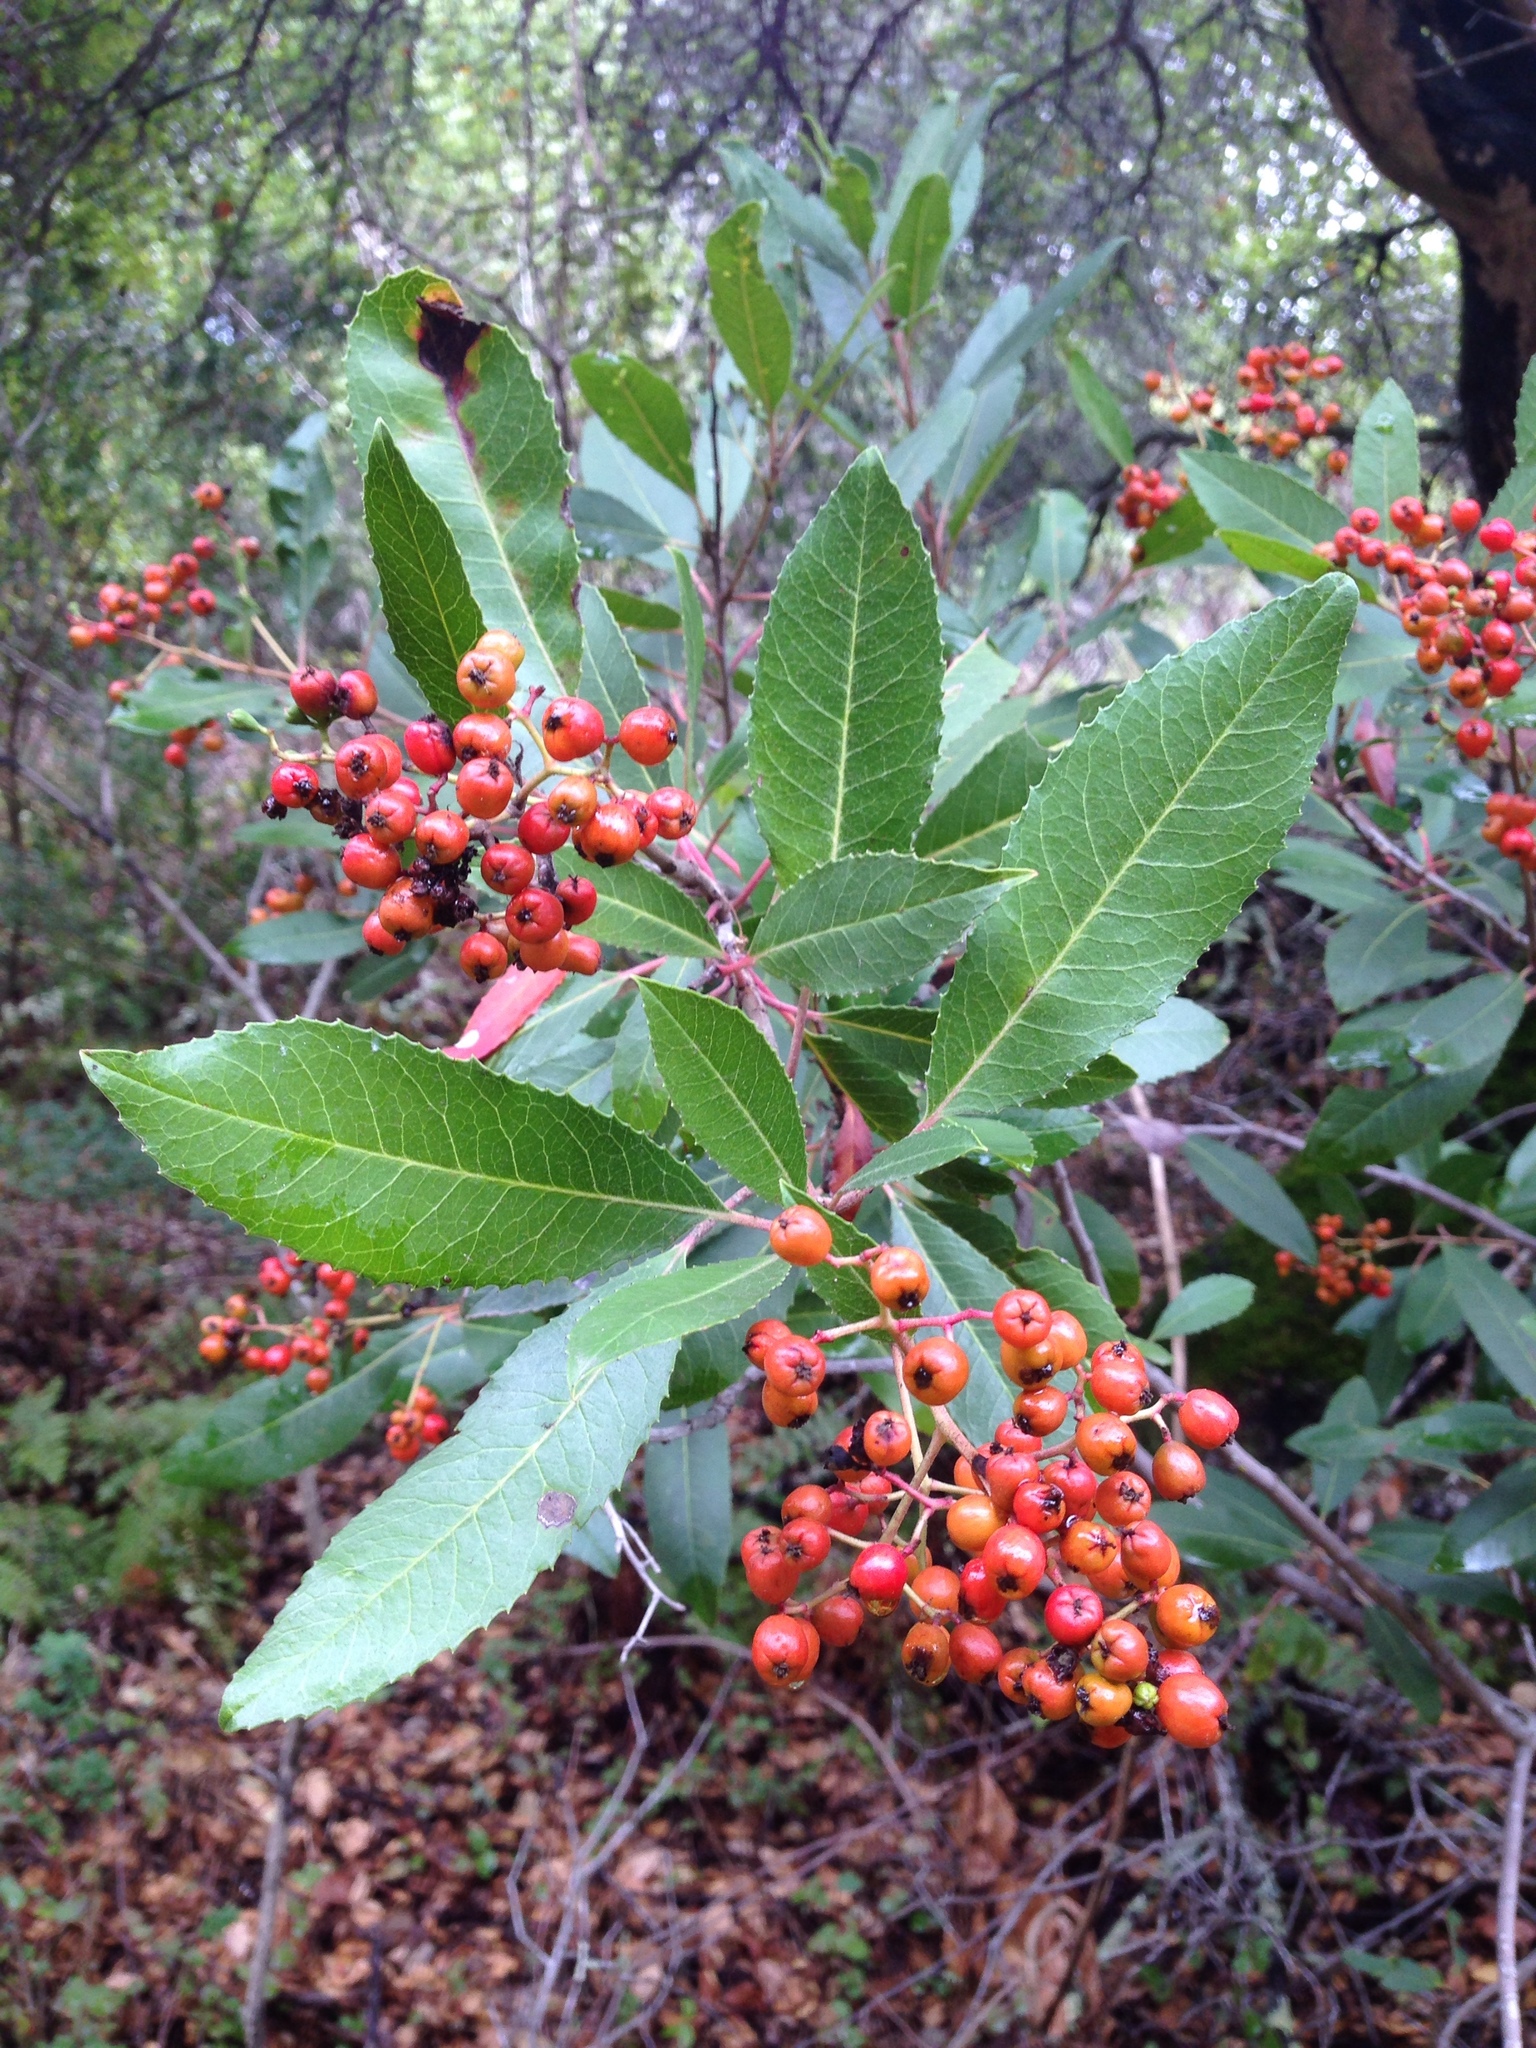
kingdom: Plantae
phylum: Tracheophyta
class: Magnoliopsida
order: Rosales
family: Rosaceae
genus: Heteromeles
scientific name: Heteromeles arbutifolia
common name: California-holly
